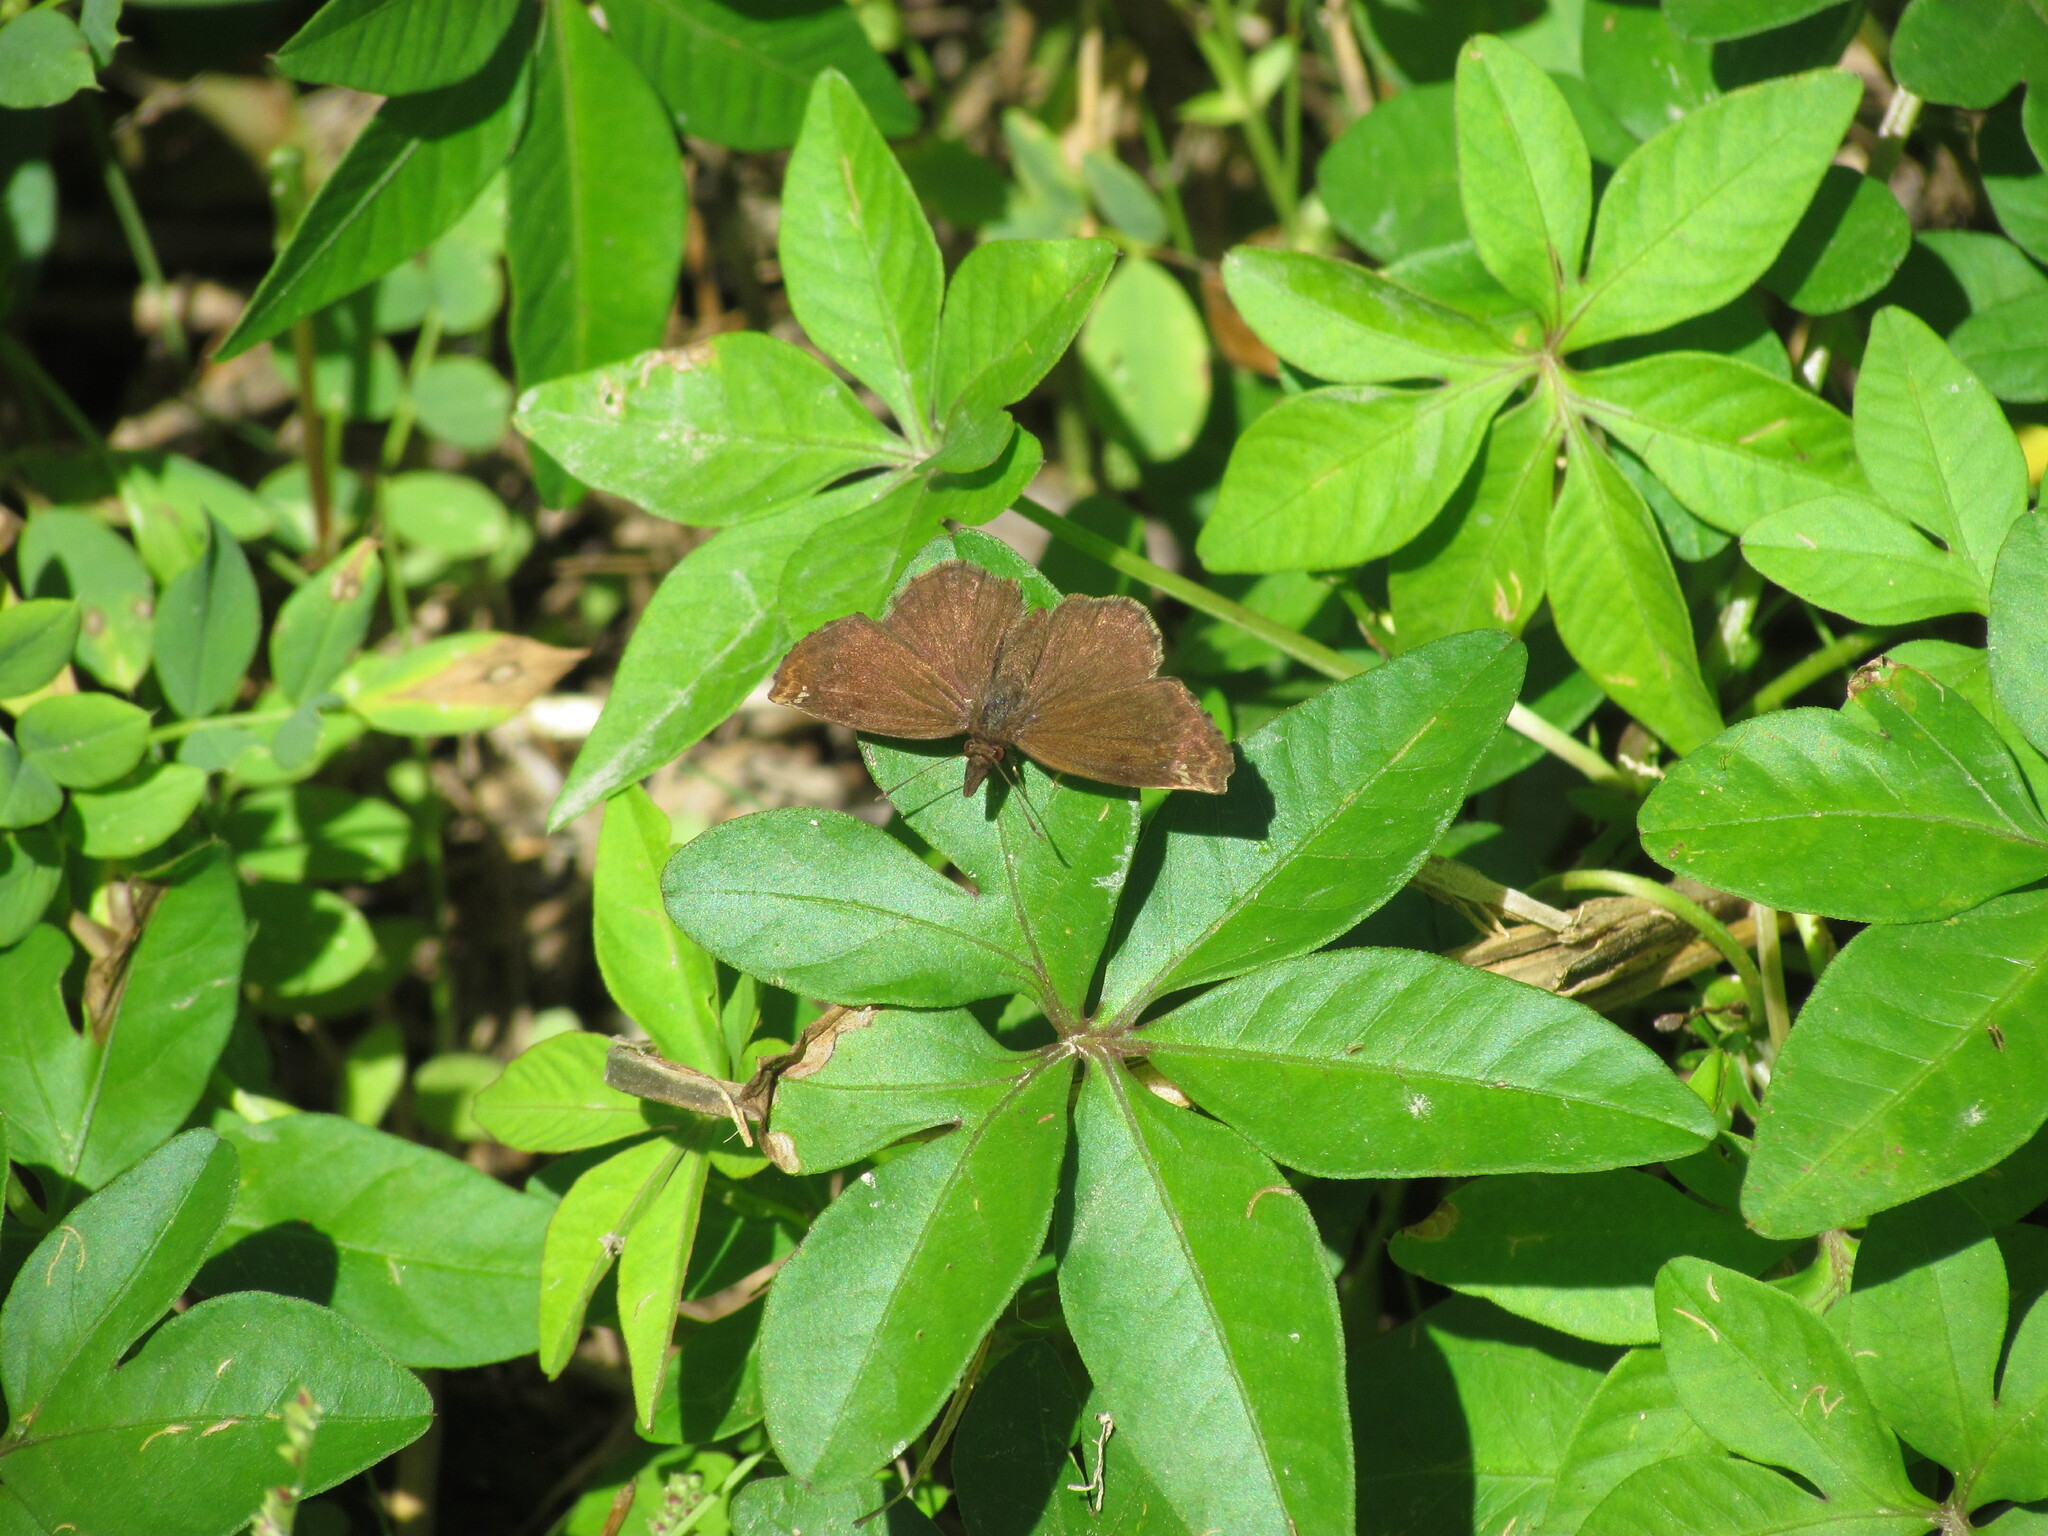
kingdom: Animalia
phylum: Arthropoda
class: Insecta
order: Lepidoptera
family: Hesperiidae
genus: Anisochoria
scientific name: Anisochoria sublimbata
